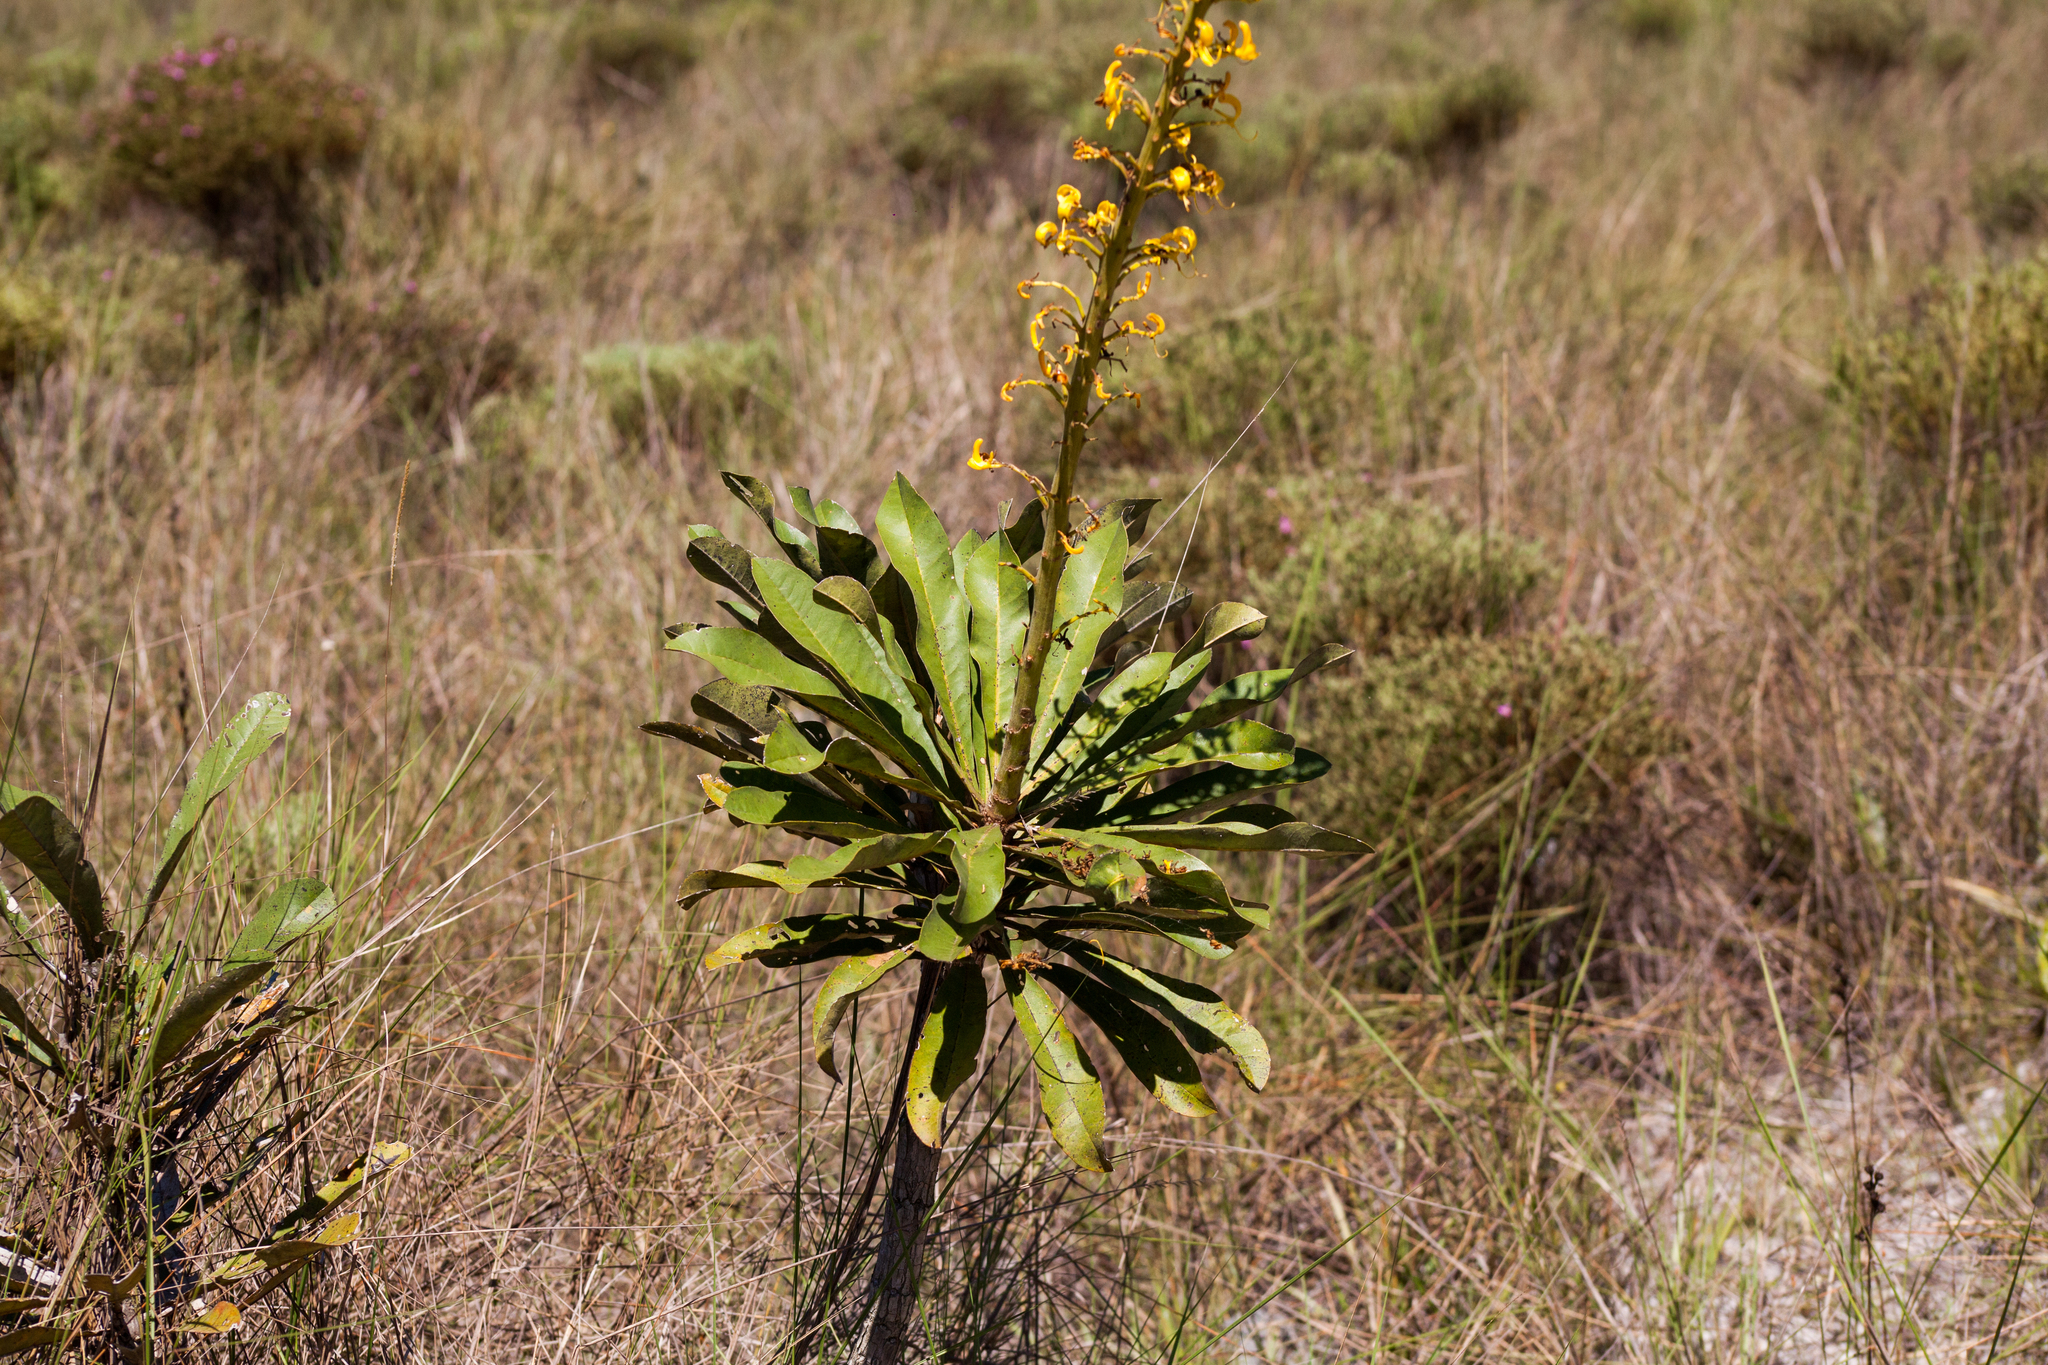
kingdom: Plantae
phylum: Tracheophyta
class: Magnoliopsida
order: Myrtales
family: Vochysiaceae
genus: Vochysia
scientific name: Vochysia palmirana
